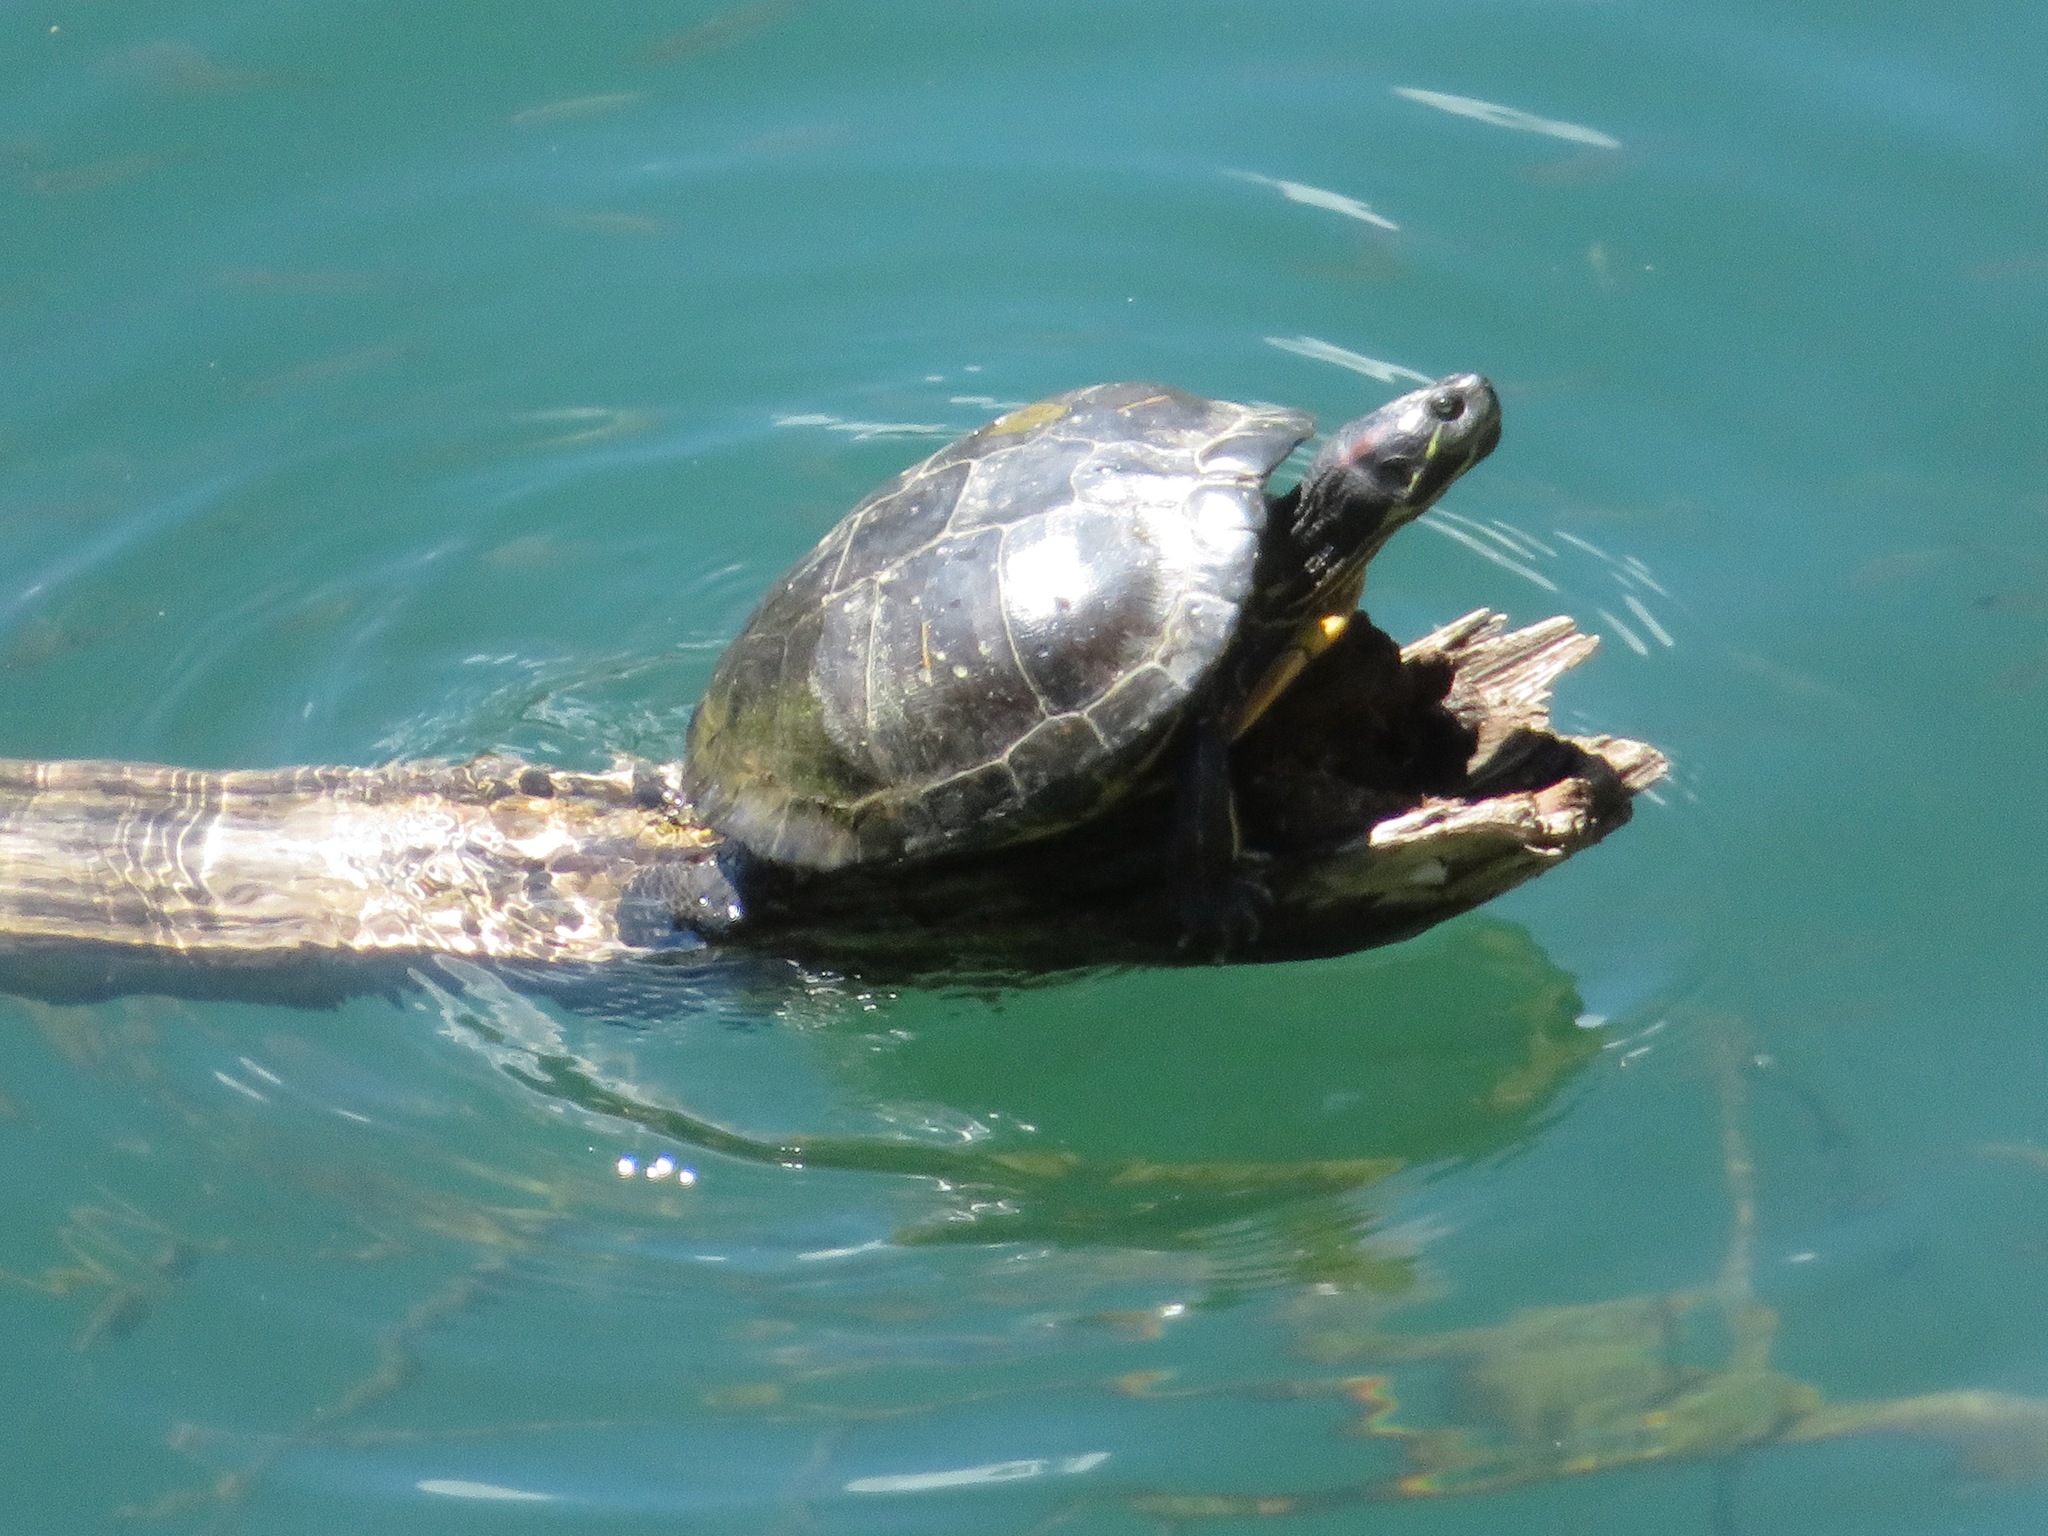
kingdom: Animalia
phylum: Chordata
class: Testudines
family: Emydidae
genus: Trachemys
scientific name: Trachemys scripta
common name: Slider
